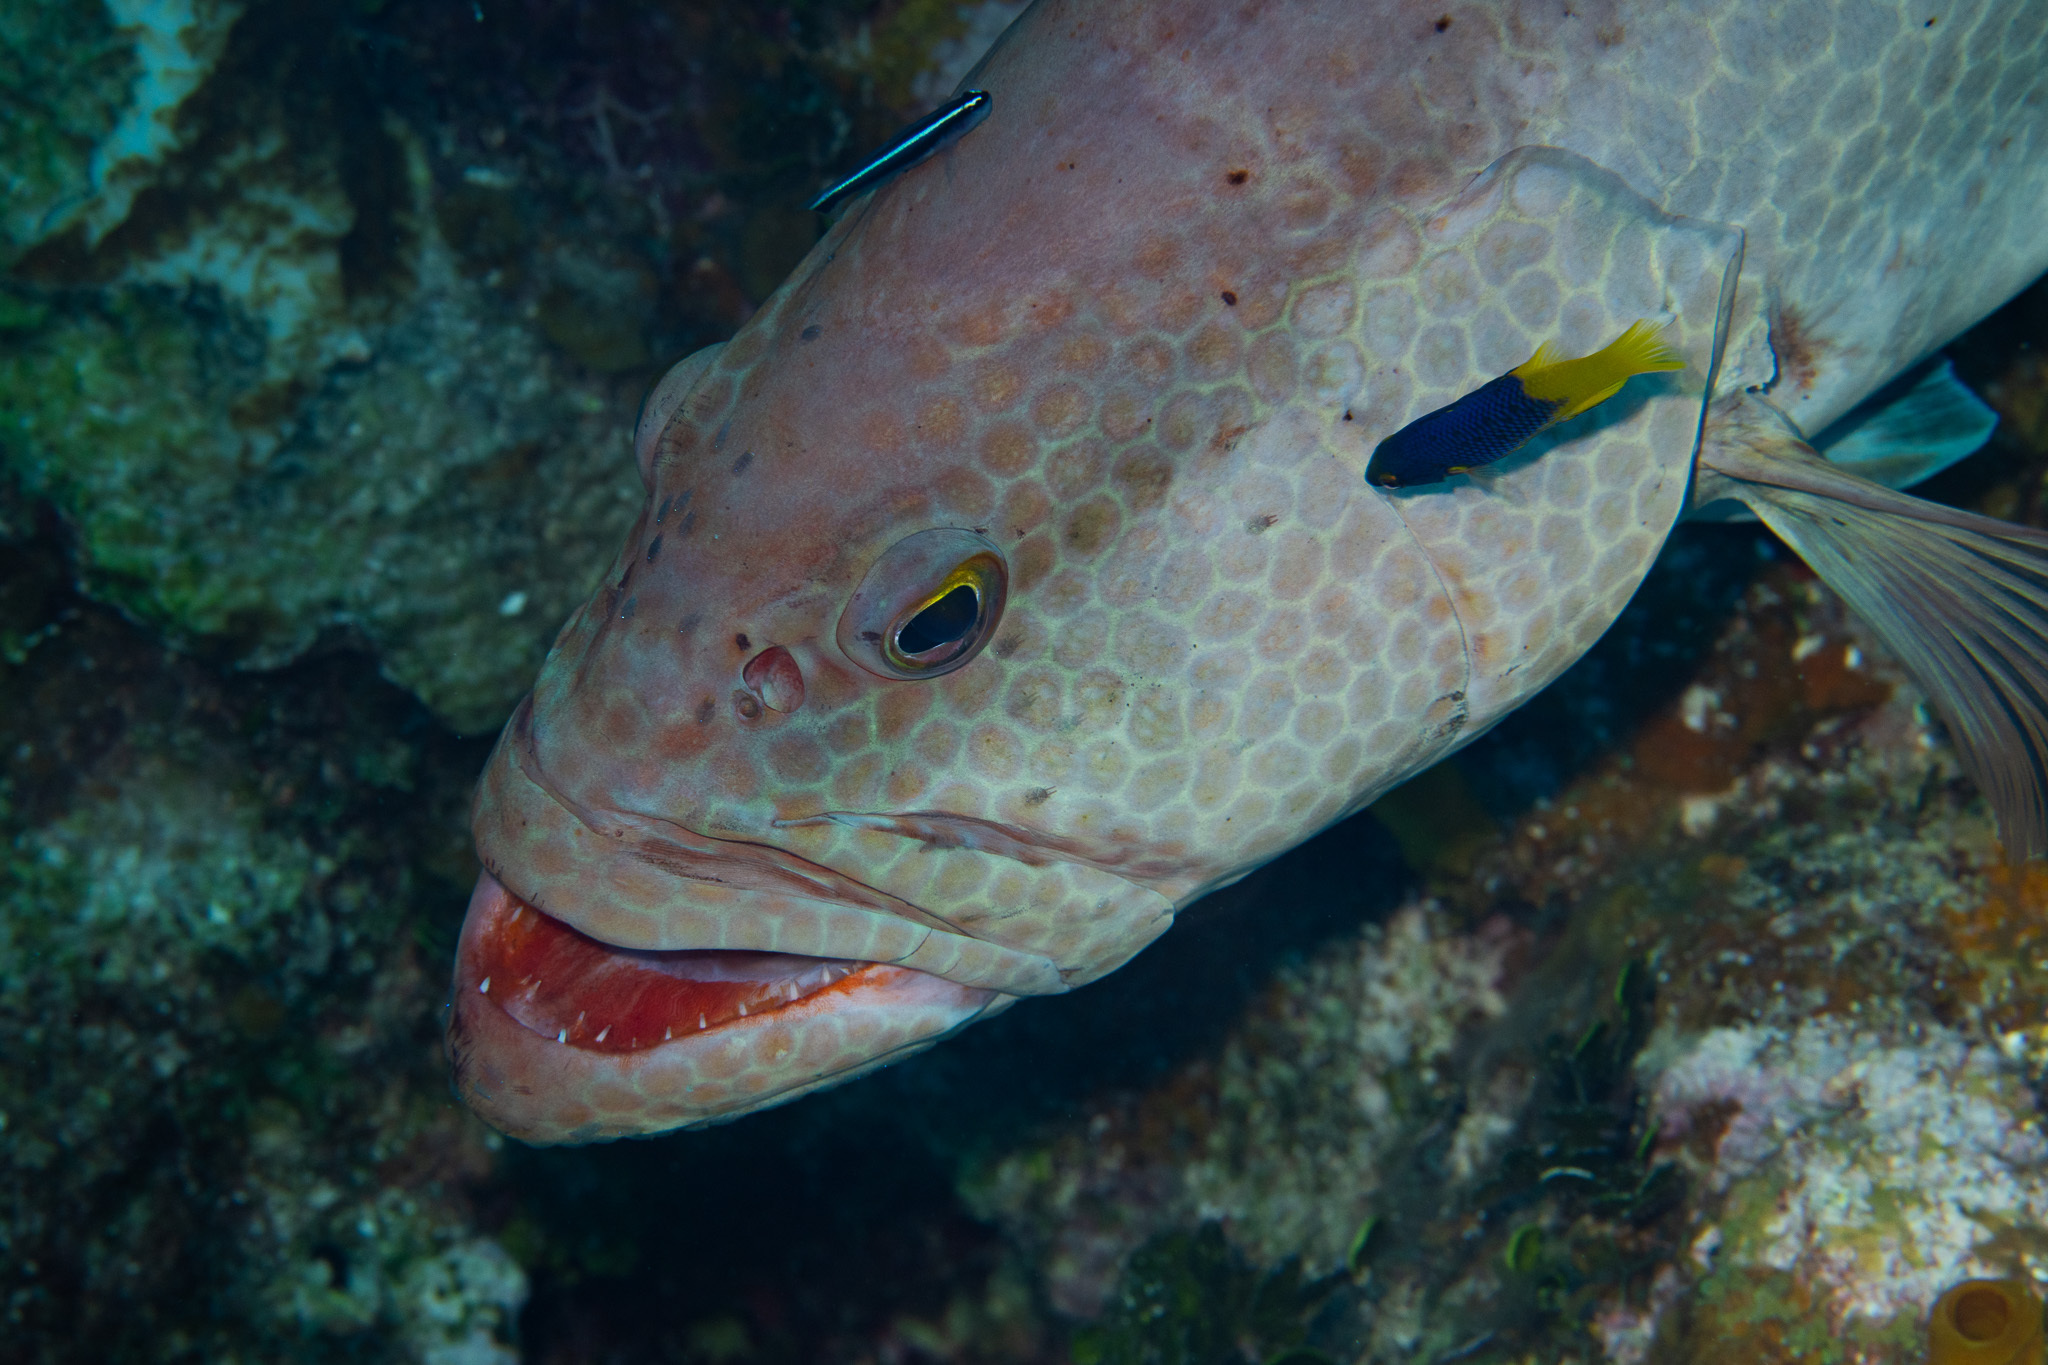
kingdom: Animalia
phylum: Chordata
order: Perciformes
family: Serranidae
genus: Mycteroperca
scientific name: Mycteroperca tigris
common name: Tiger grouper
